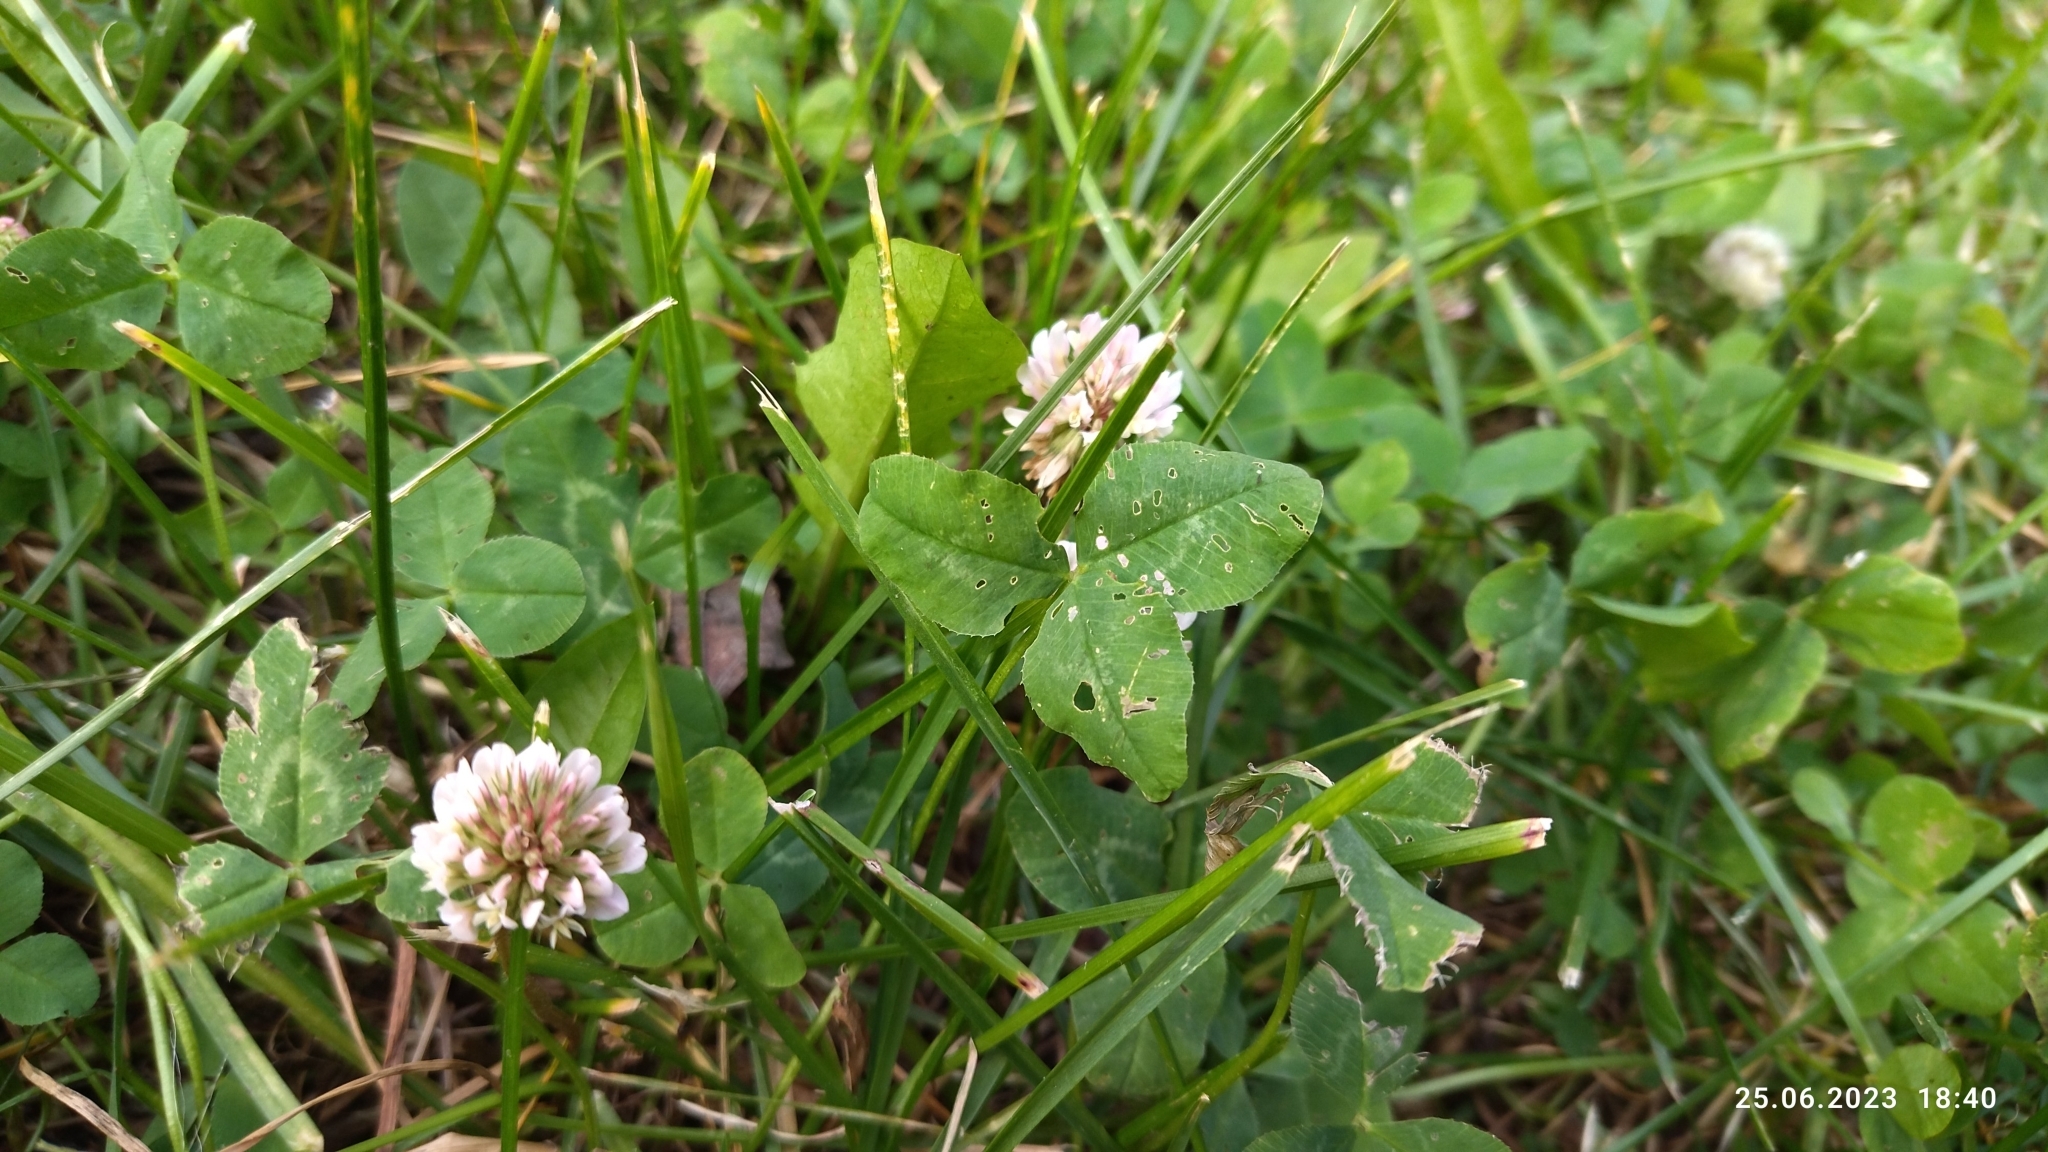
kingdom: Plantae
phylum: Tracheophyta
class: Magnoliopsida
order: Fabales
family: Fabaceae
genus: Trifolium
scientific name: Trifolium repens
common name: White clover
